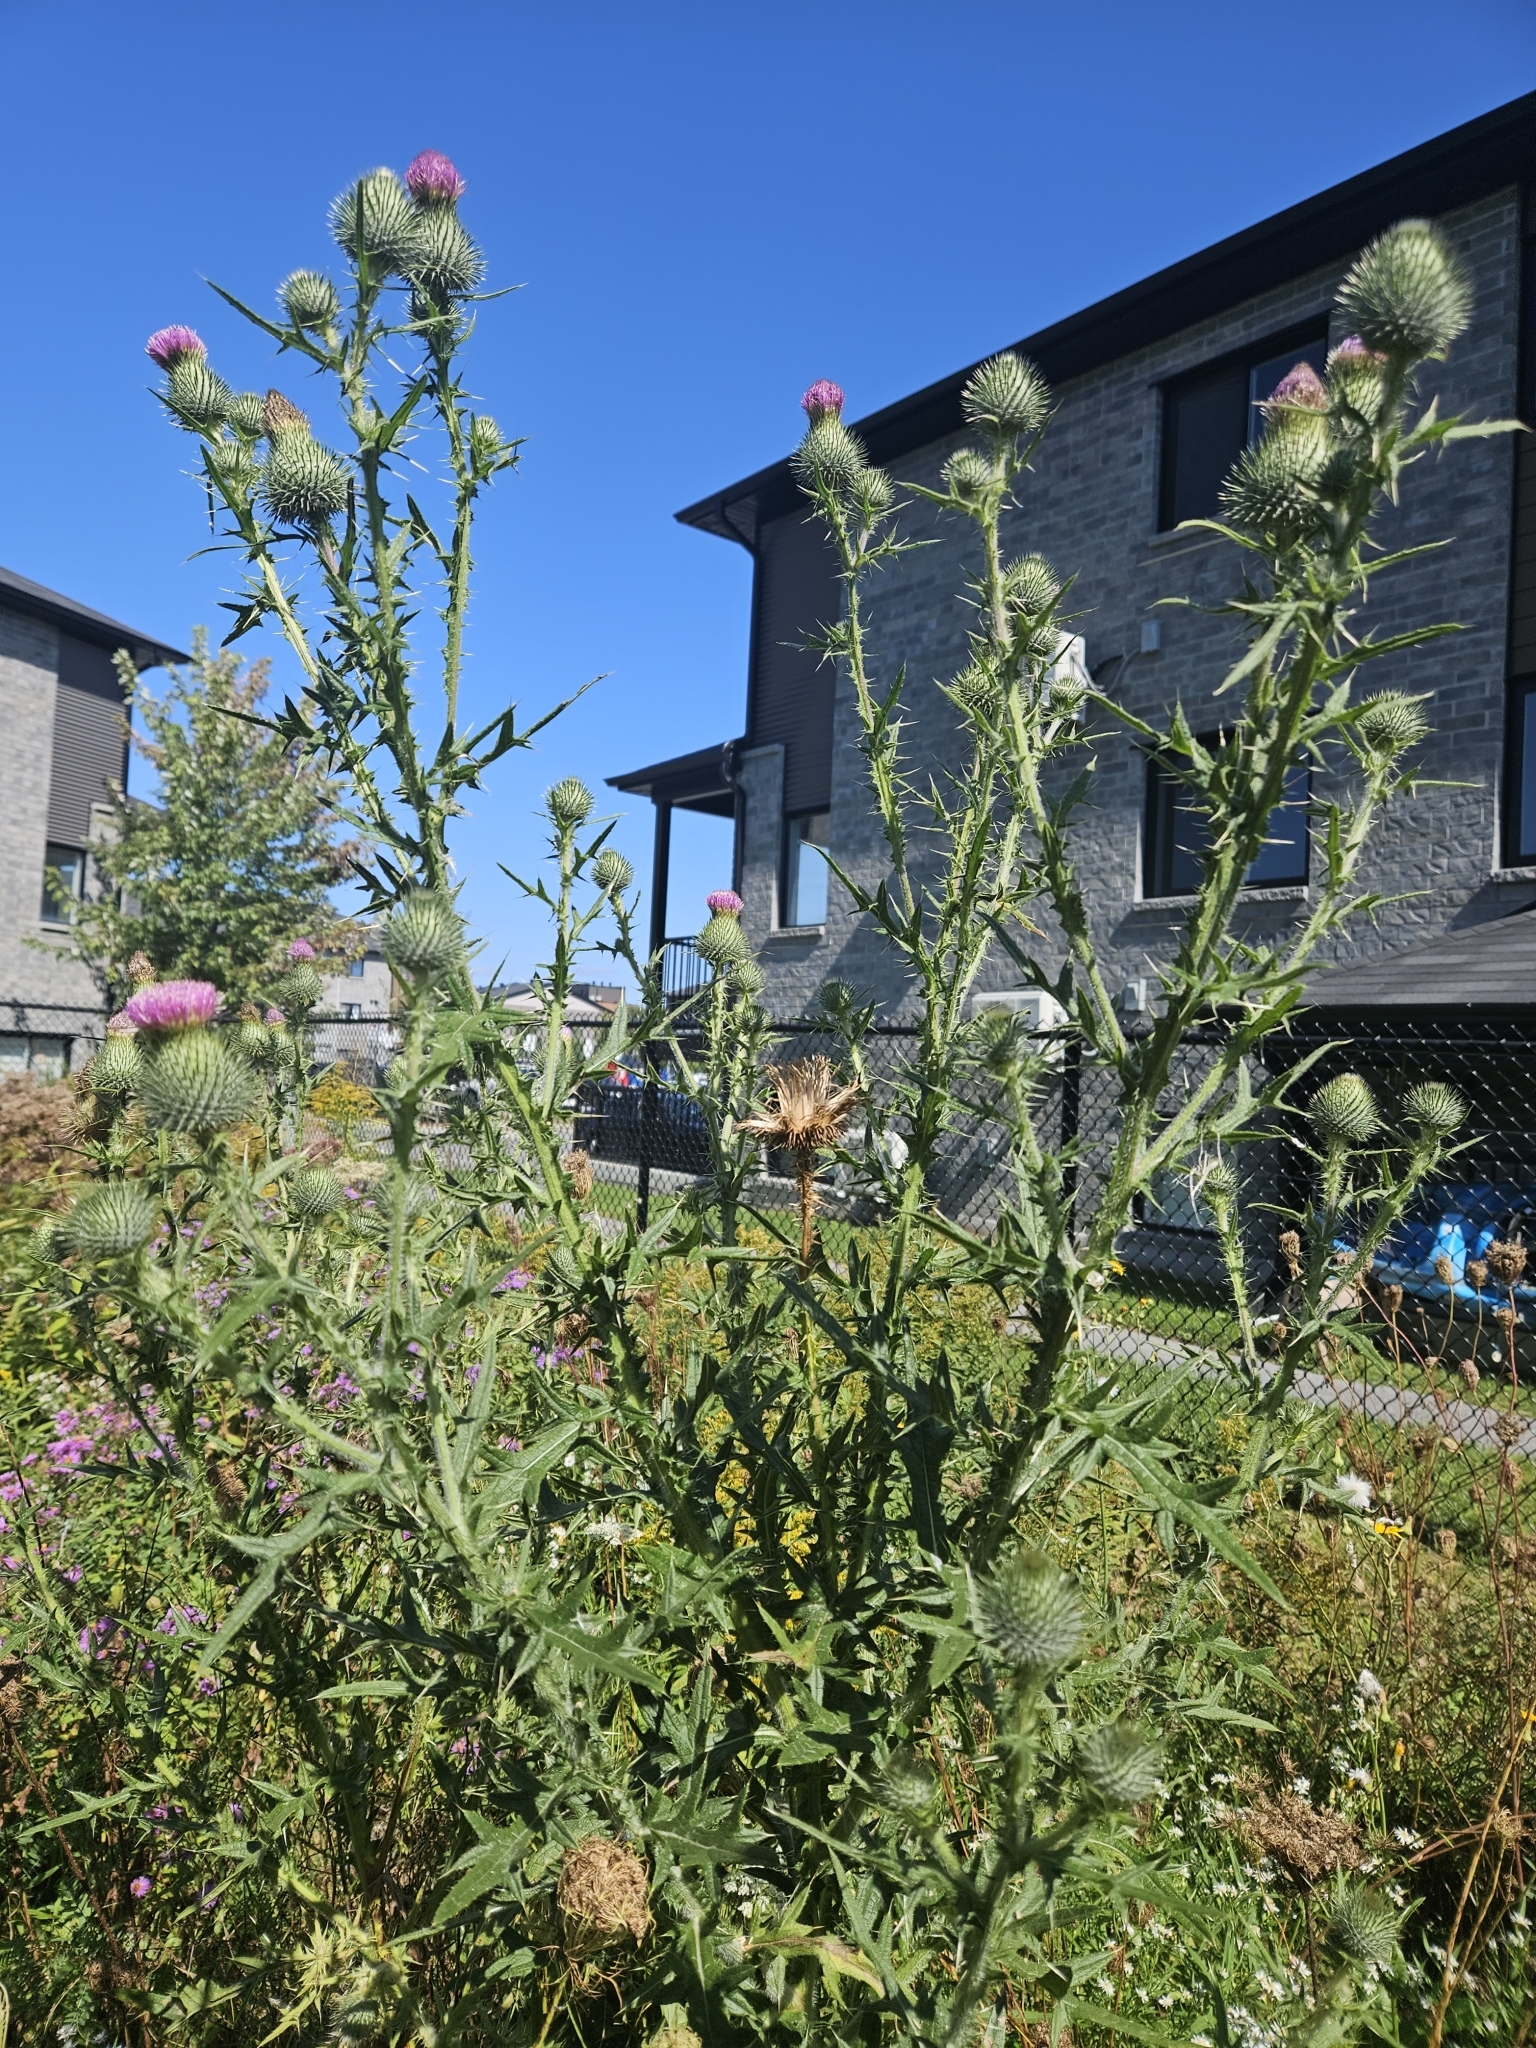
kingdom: Plantae
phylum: Tracheophyta
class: Magnoliopsida
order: Asterales
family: Asteraceae
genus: Cirsium
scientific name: Cirsium vulgare
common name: Bull thistle
